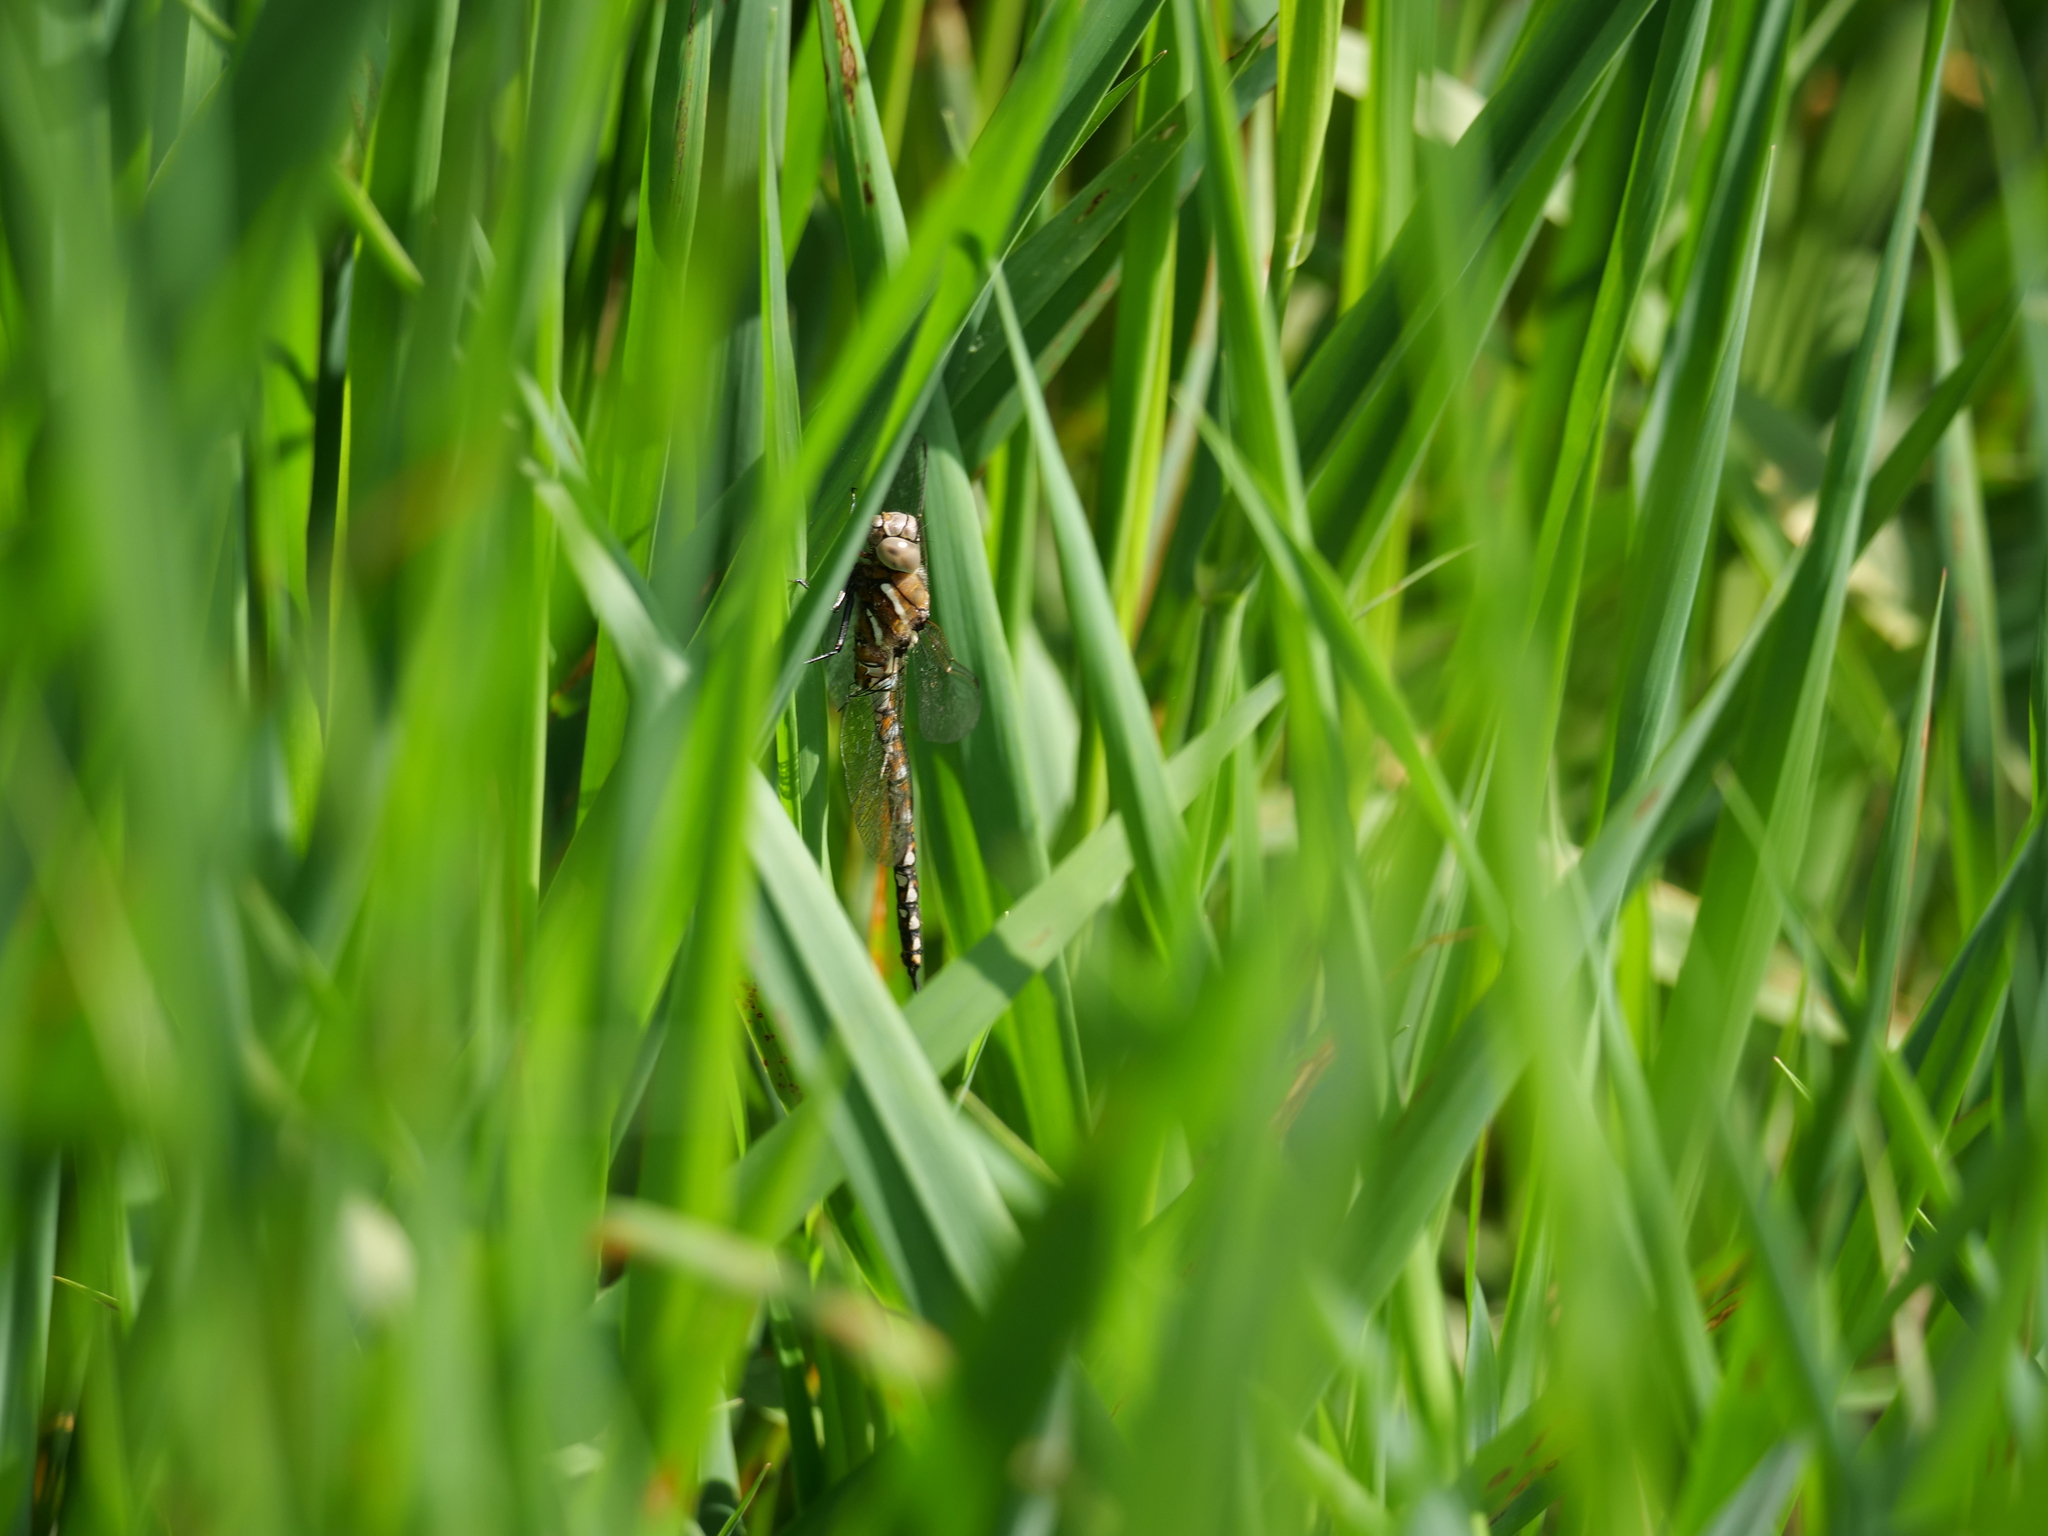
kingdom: Animalia
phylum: Arthropoda
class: Insecta
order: Odonata
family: Aeshnidae
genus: Rhionaeschna
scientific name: Rhionaeschna californica
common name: California darner
